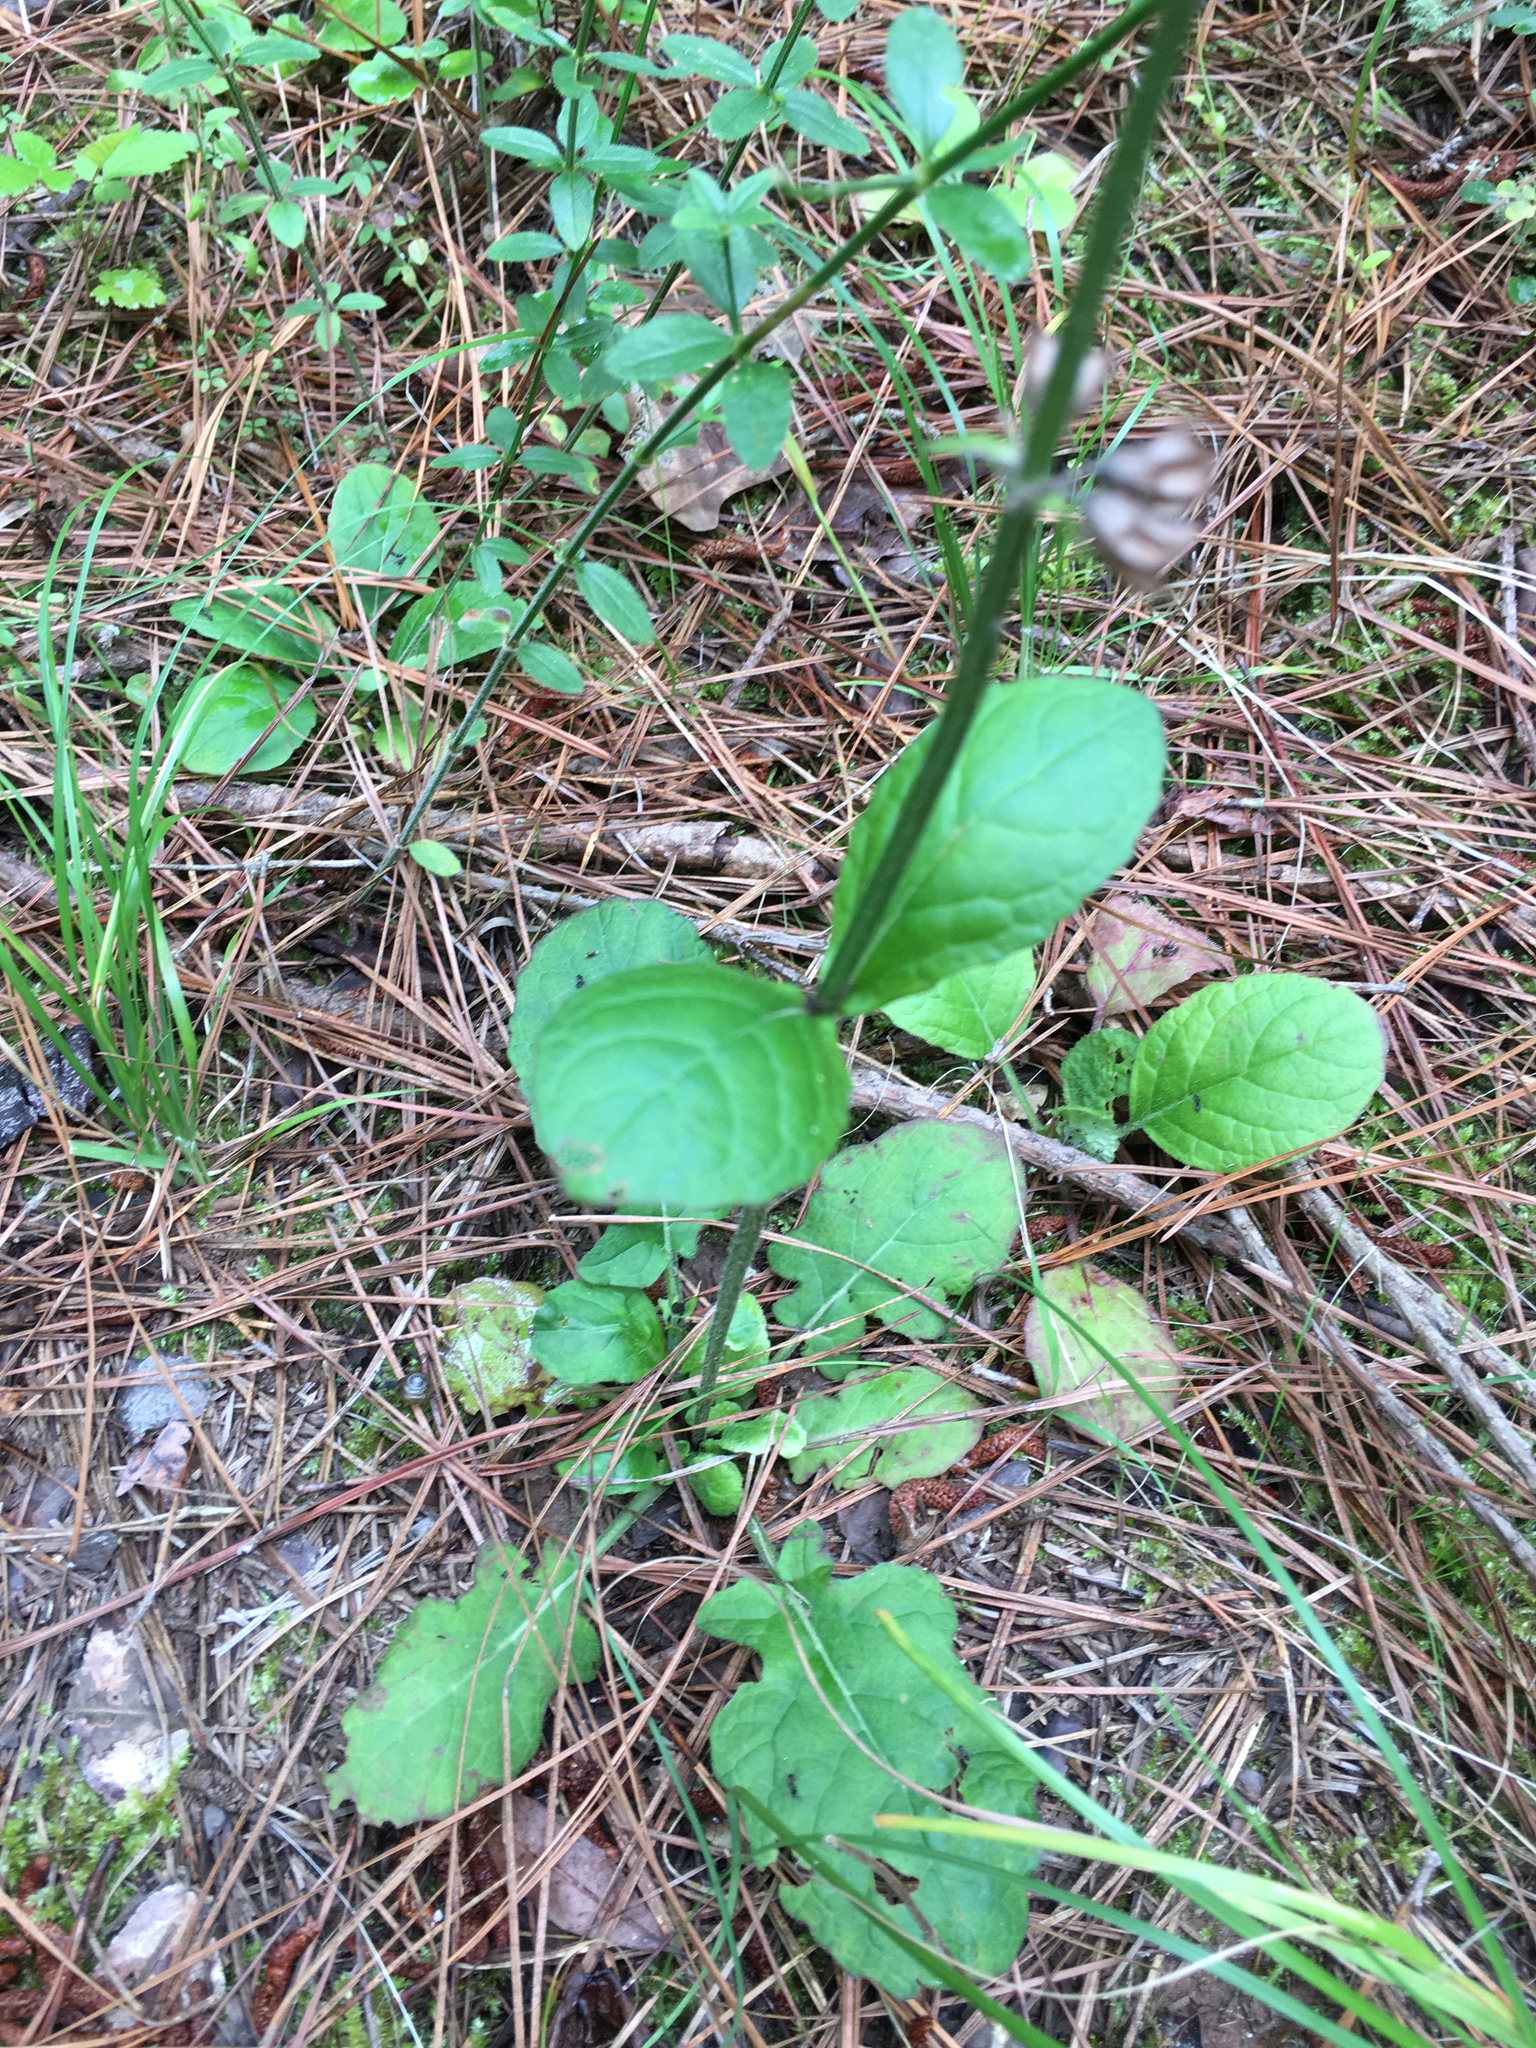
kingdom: Plantae
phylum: Tracheophyta
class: Magnoliopsida
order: Lamiales
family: Lamiaceae
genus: Salvia
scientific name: Salvia lyrata
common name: Cancerweed
